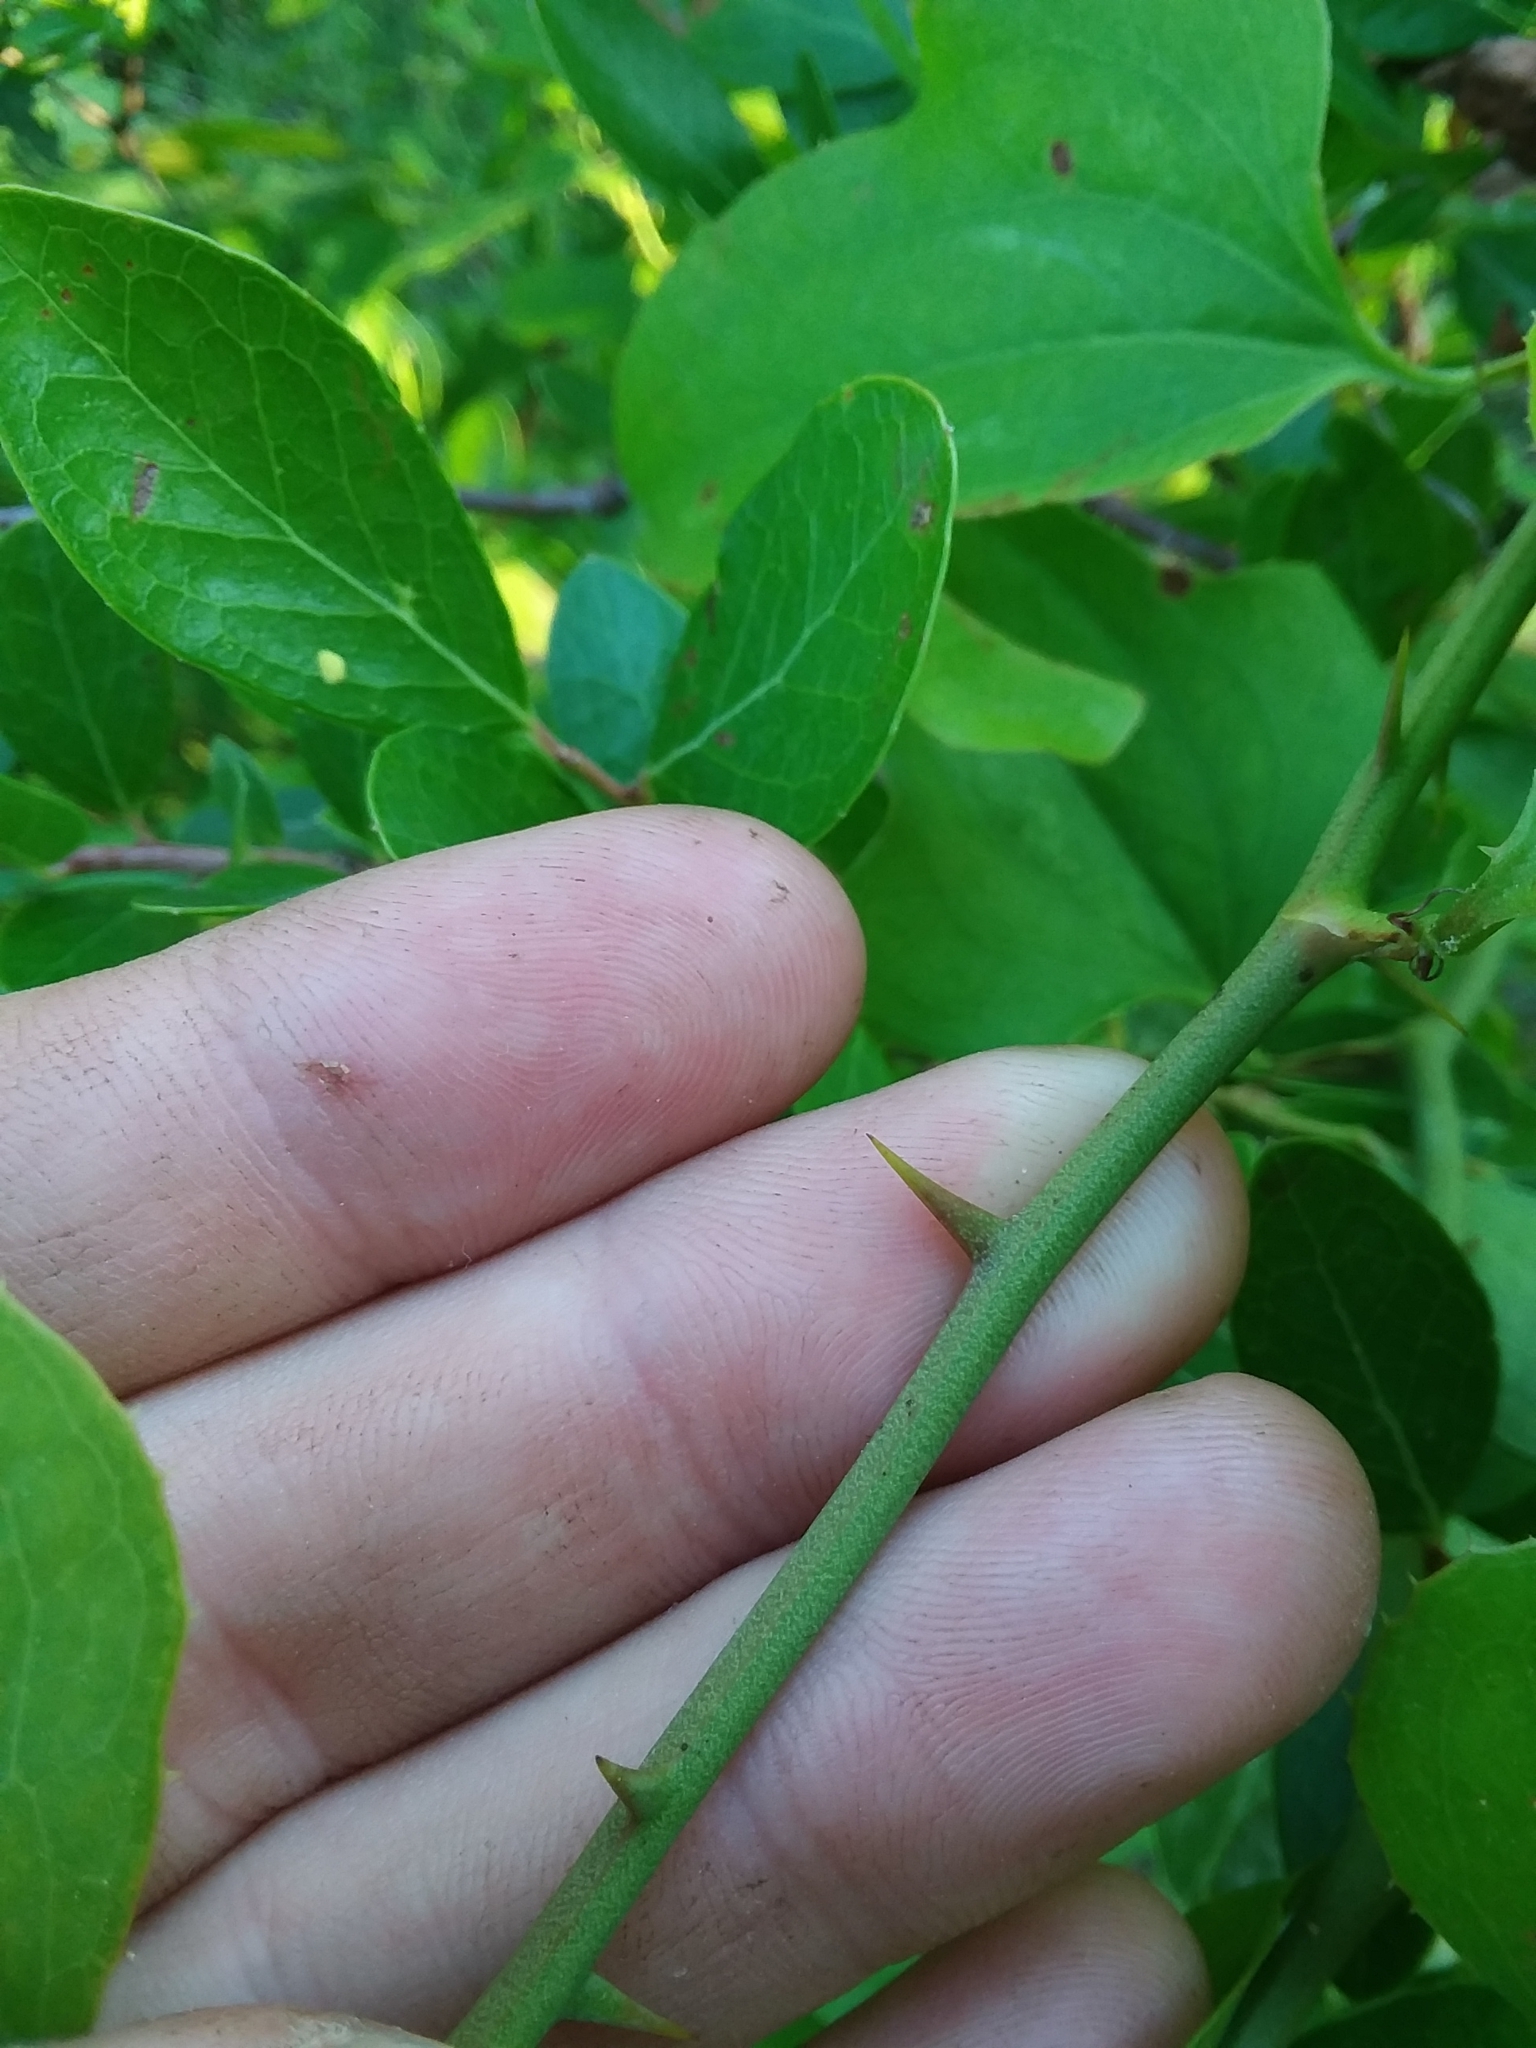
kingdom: Plantae
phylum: Tracheophyta
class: Liliopsida
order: Liliales
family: Smilacaceae
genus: Smilax
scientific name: Smilax bona-nox
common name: Catbrier
